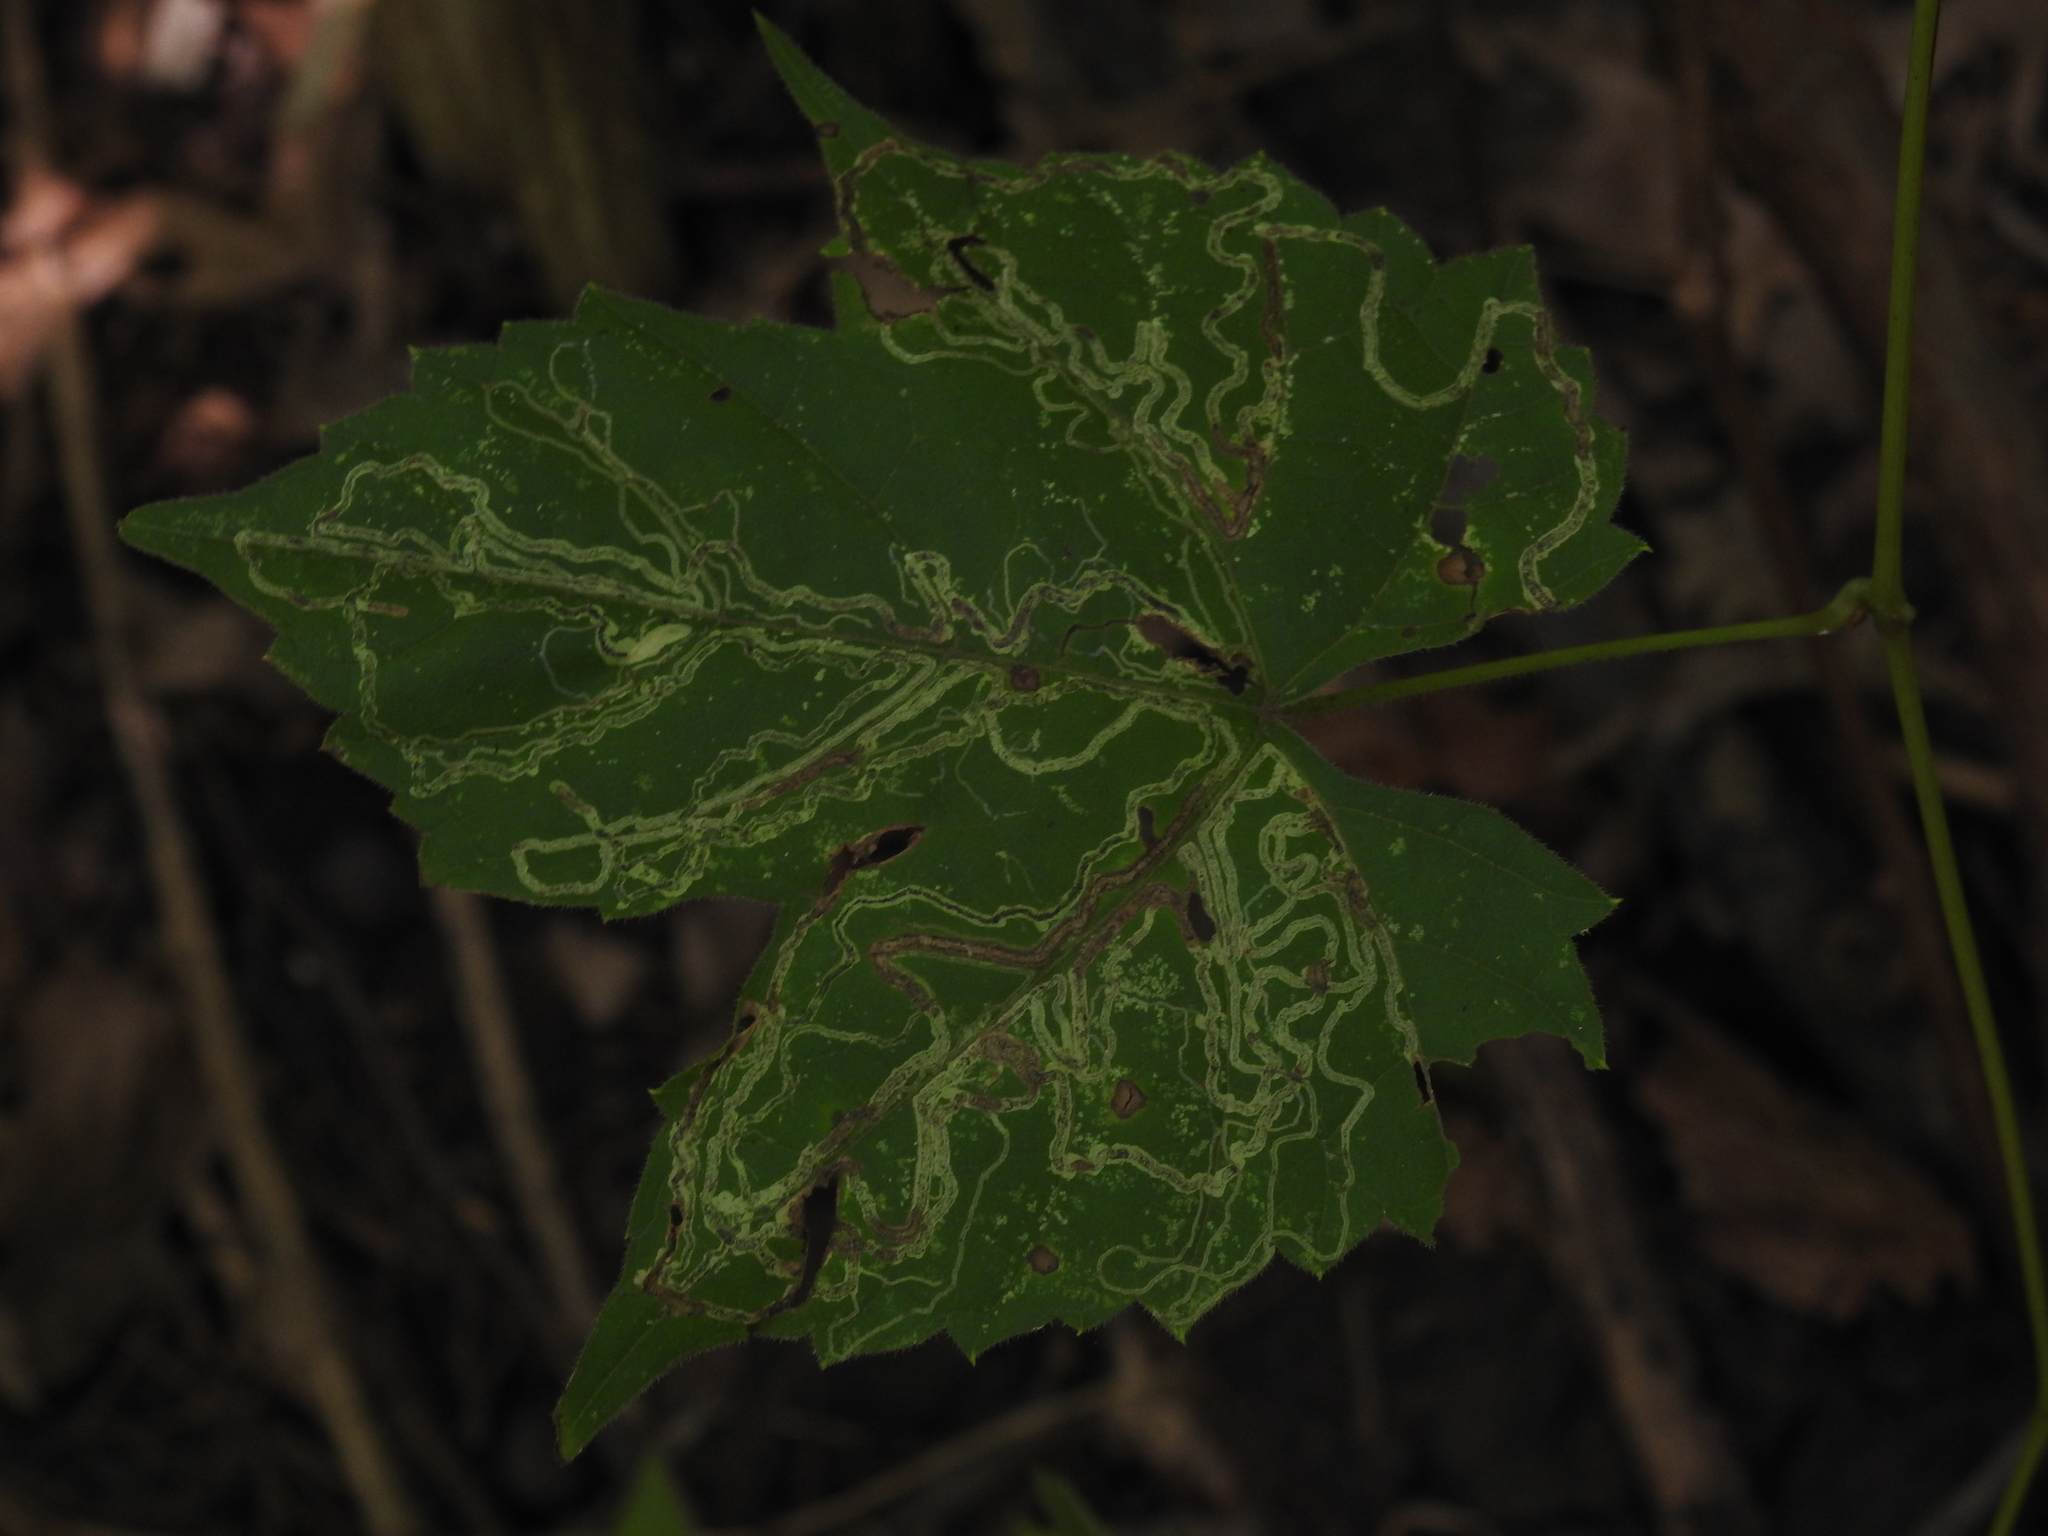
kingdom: Animalia
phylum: Arthropoda
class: Insecta
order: Lepidoptera
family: Gracillariidae
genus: Phyllocnistis
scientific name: Phyllocnistis vitifoliella
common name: Grape leaf-miner moth
